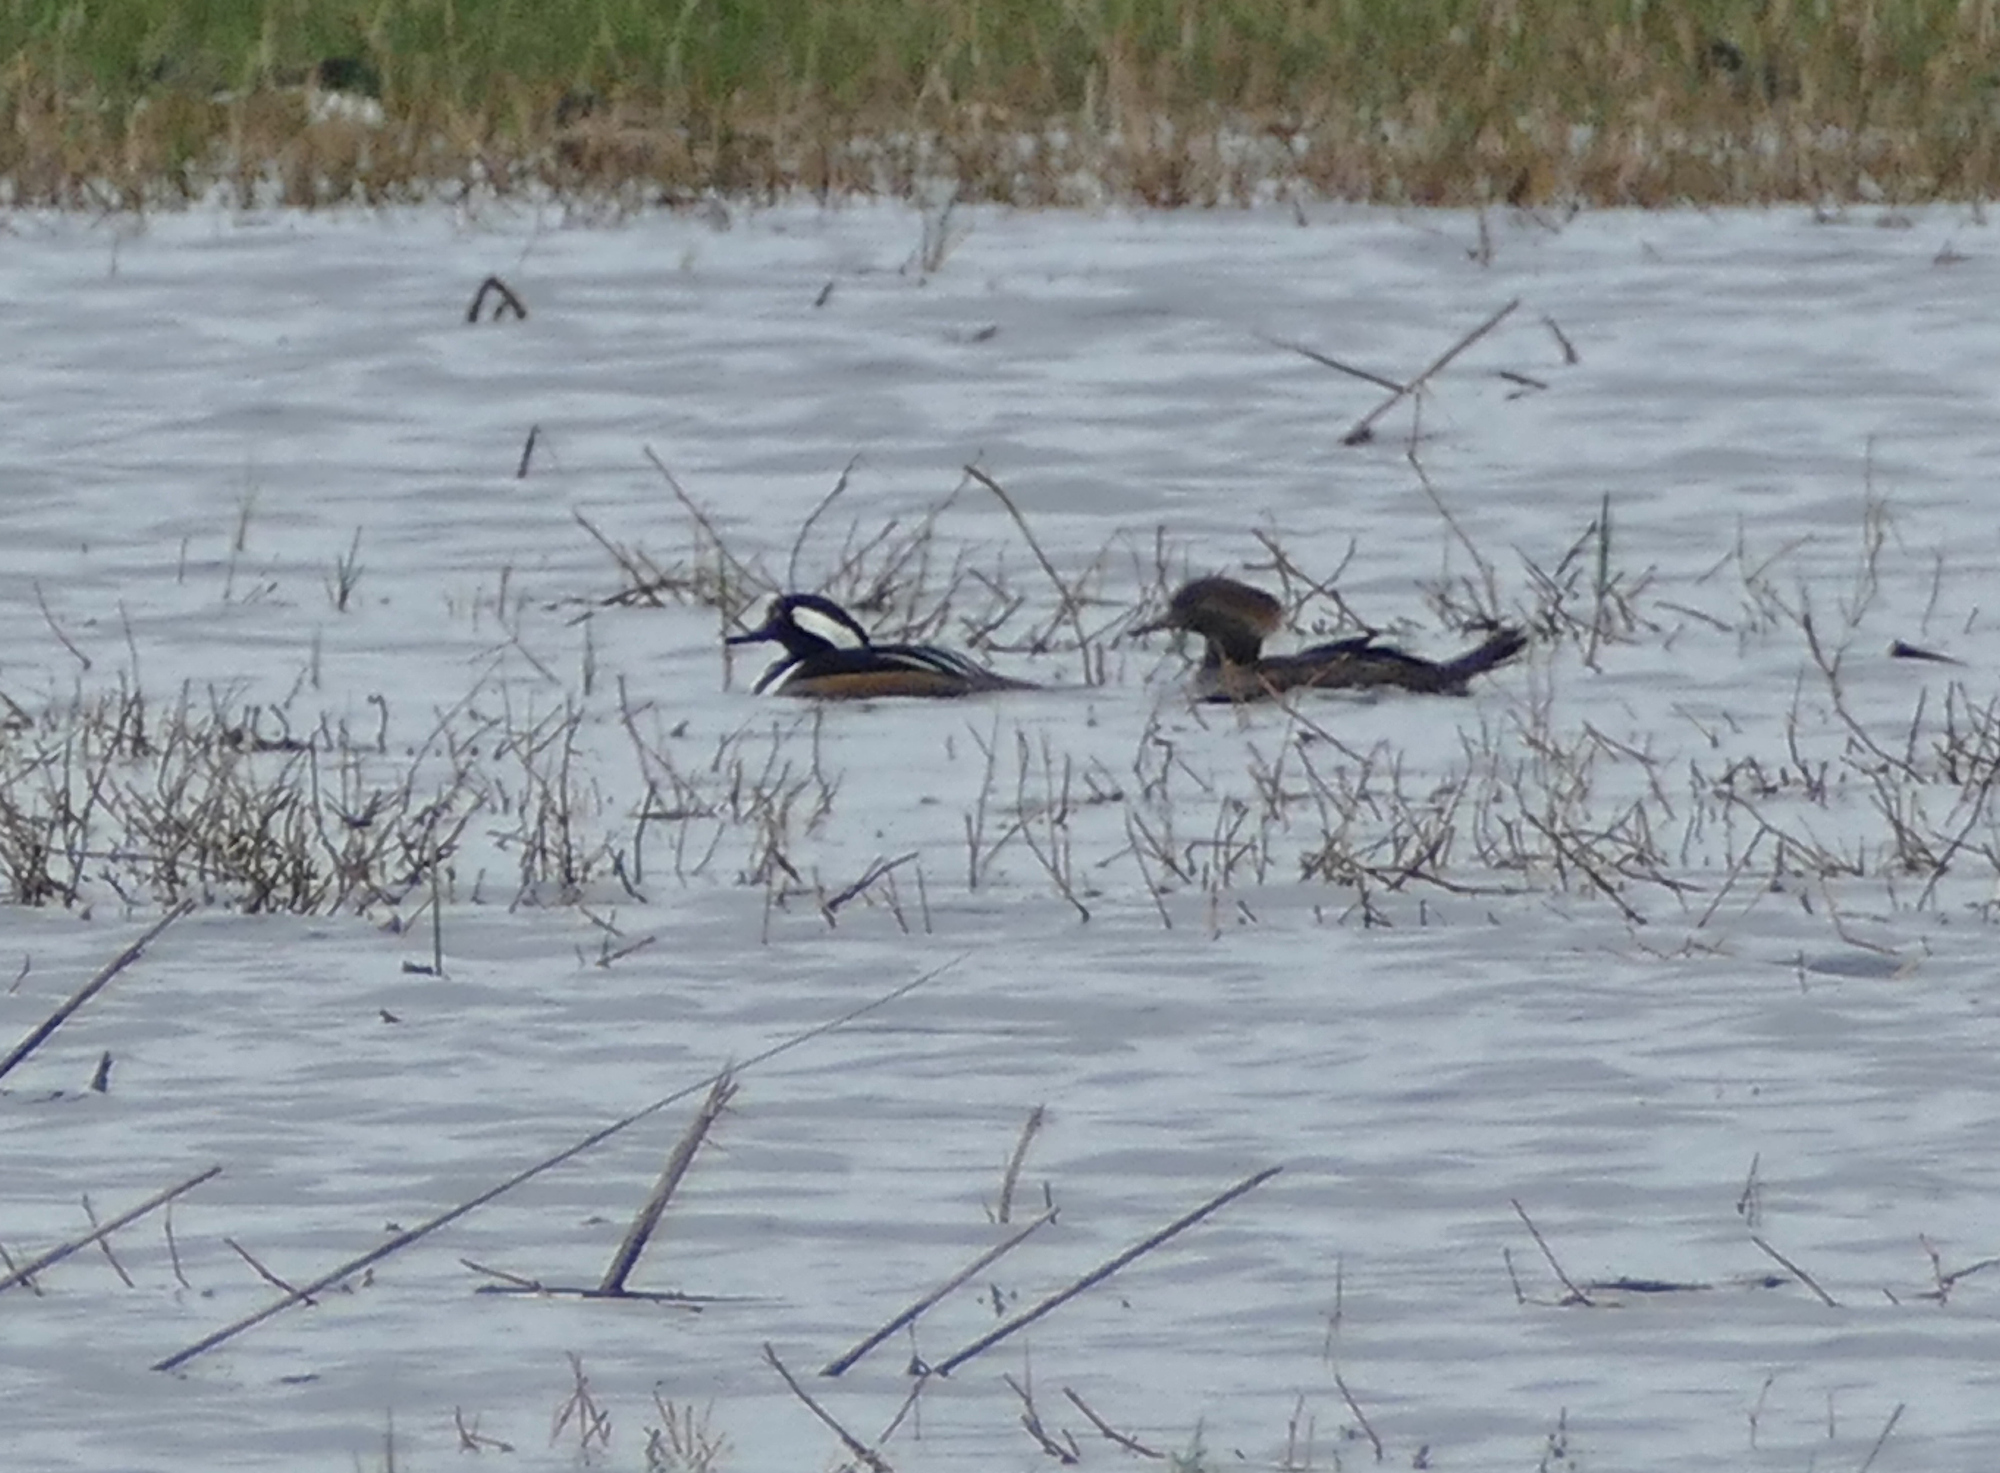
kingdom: Animalia
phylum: Chordata
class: Aves
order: Anseriformes
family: Anatidae
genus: Lophodytes
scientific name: Lophodytes cucullatus
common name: Hooded merganser
